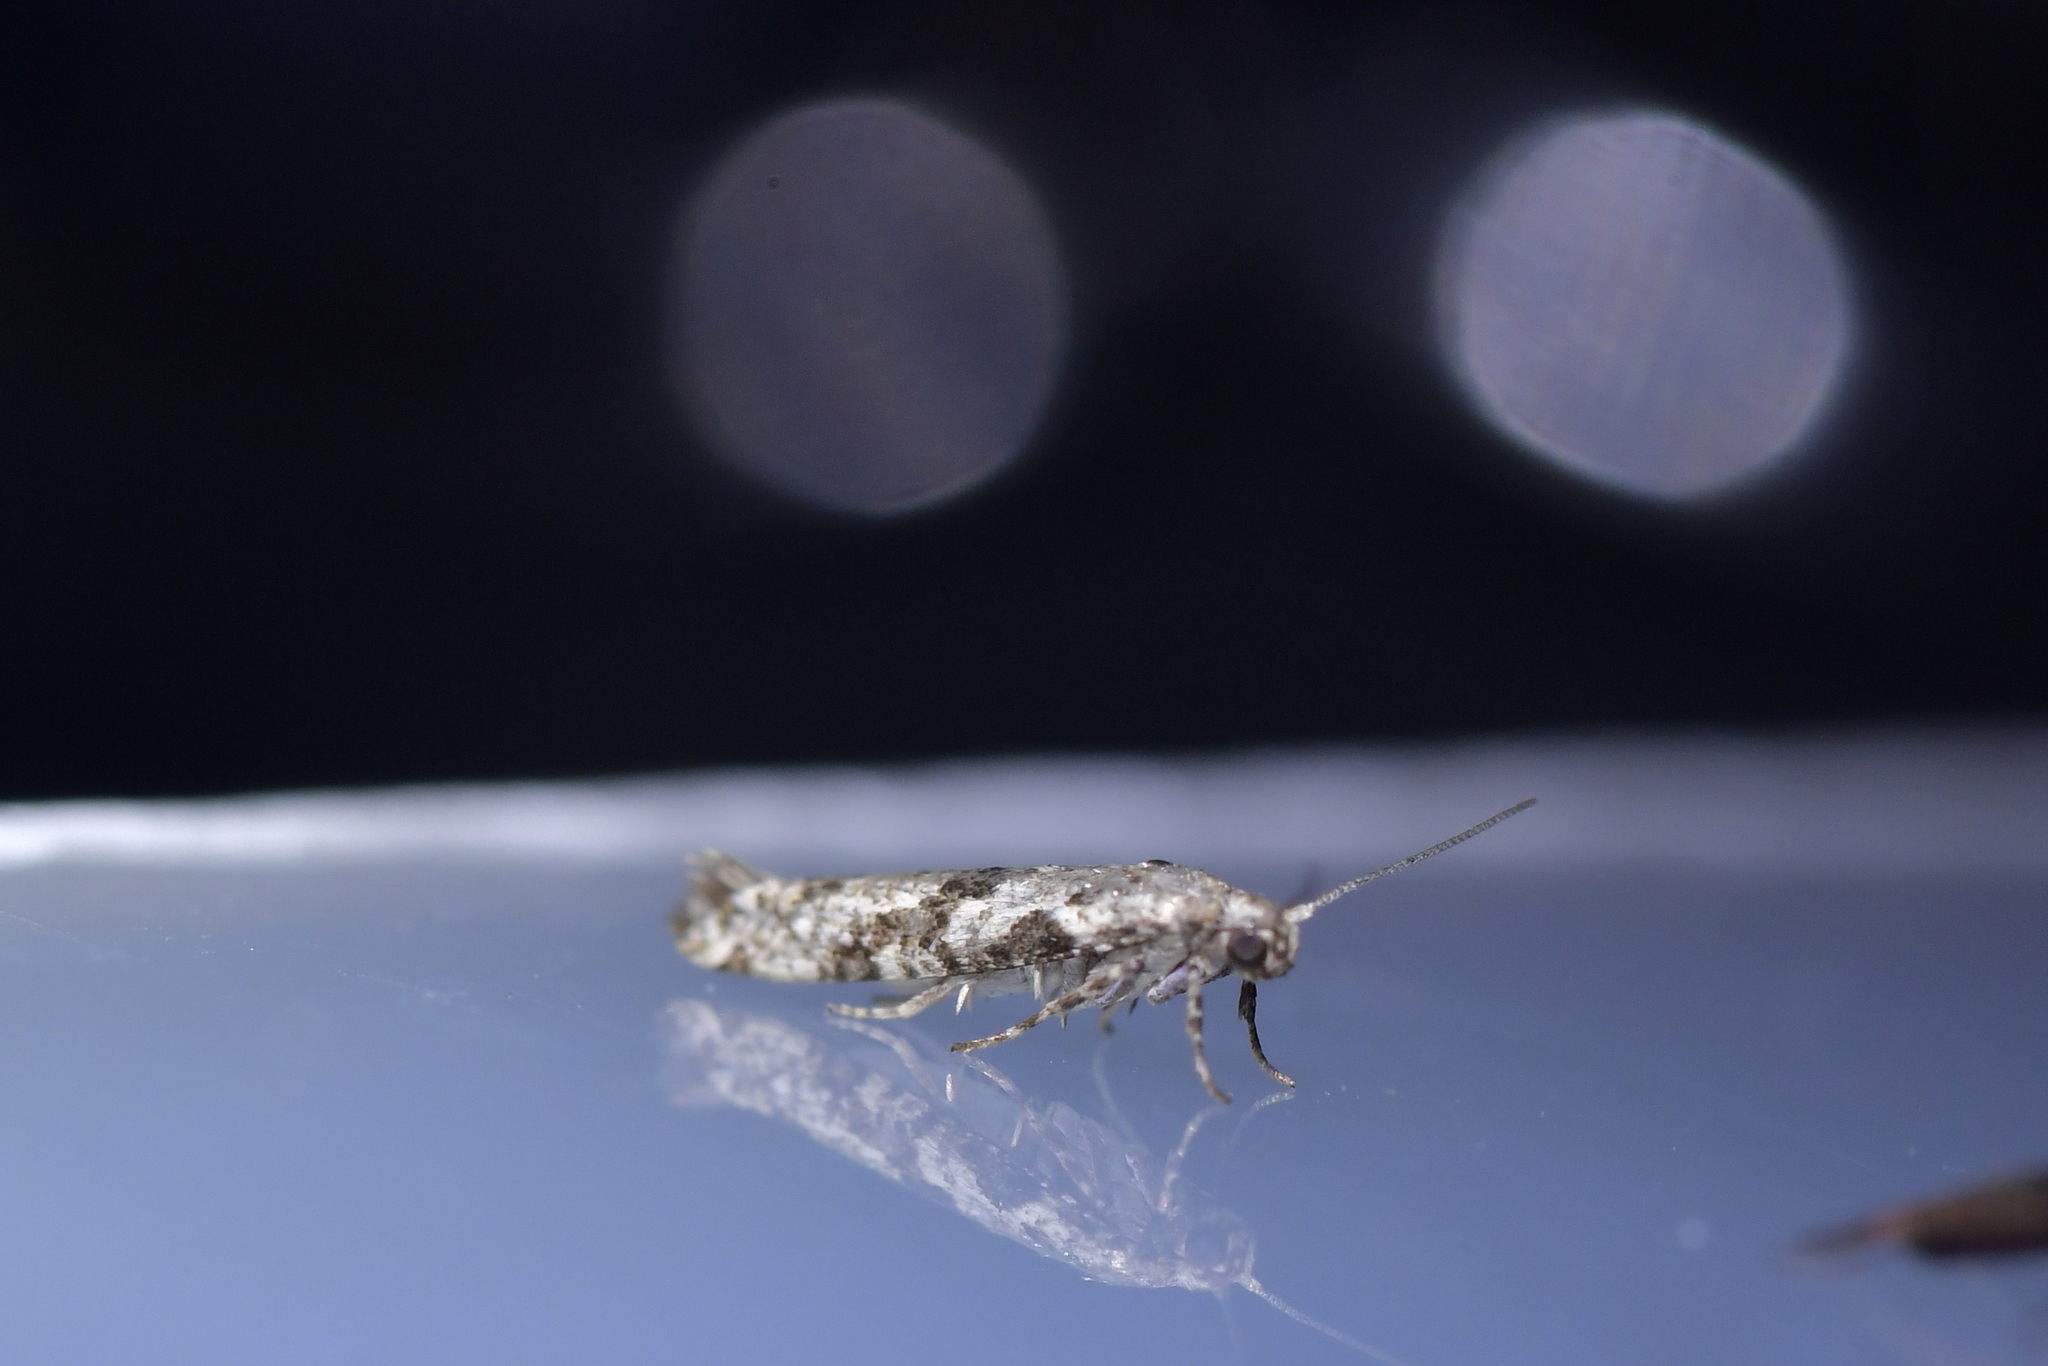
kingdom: Animalia
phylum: Arthropoda
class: Insecta
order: Lepidoptera
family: Praydidae
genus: Prays
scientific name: Prays nephelomima
